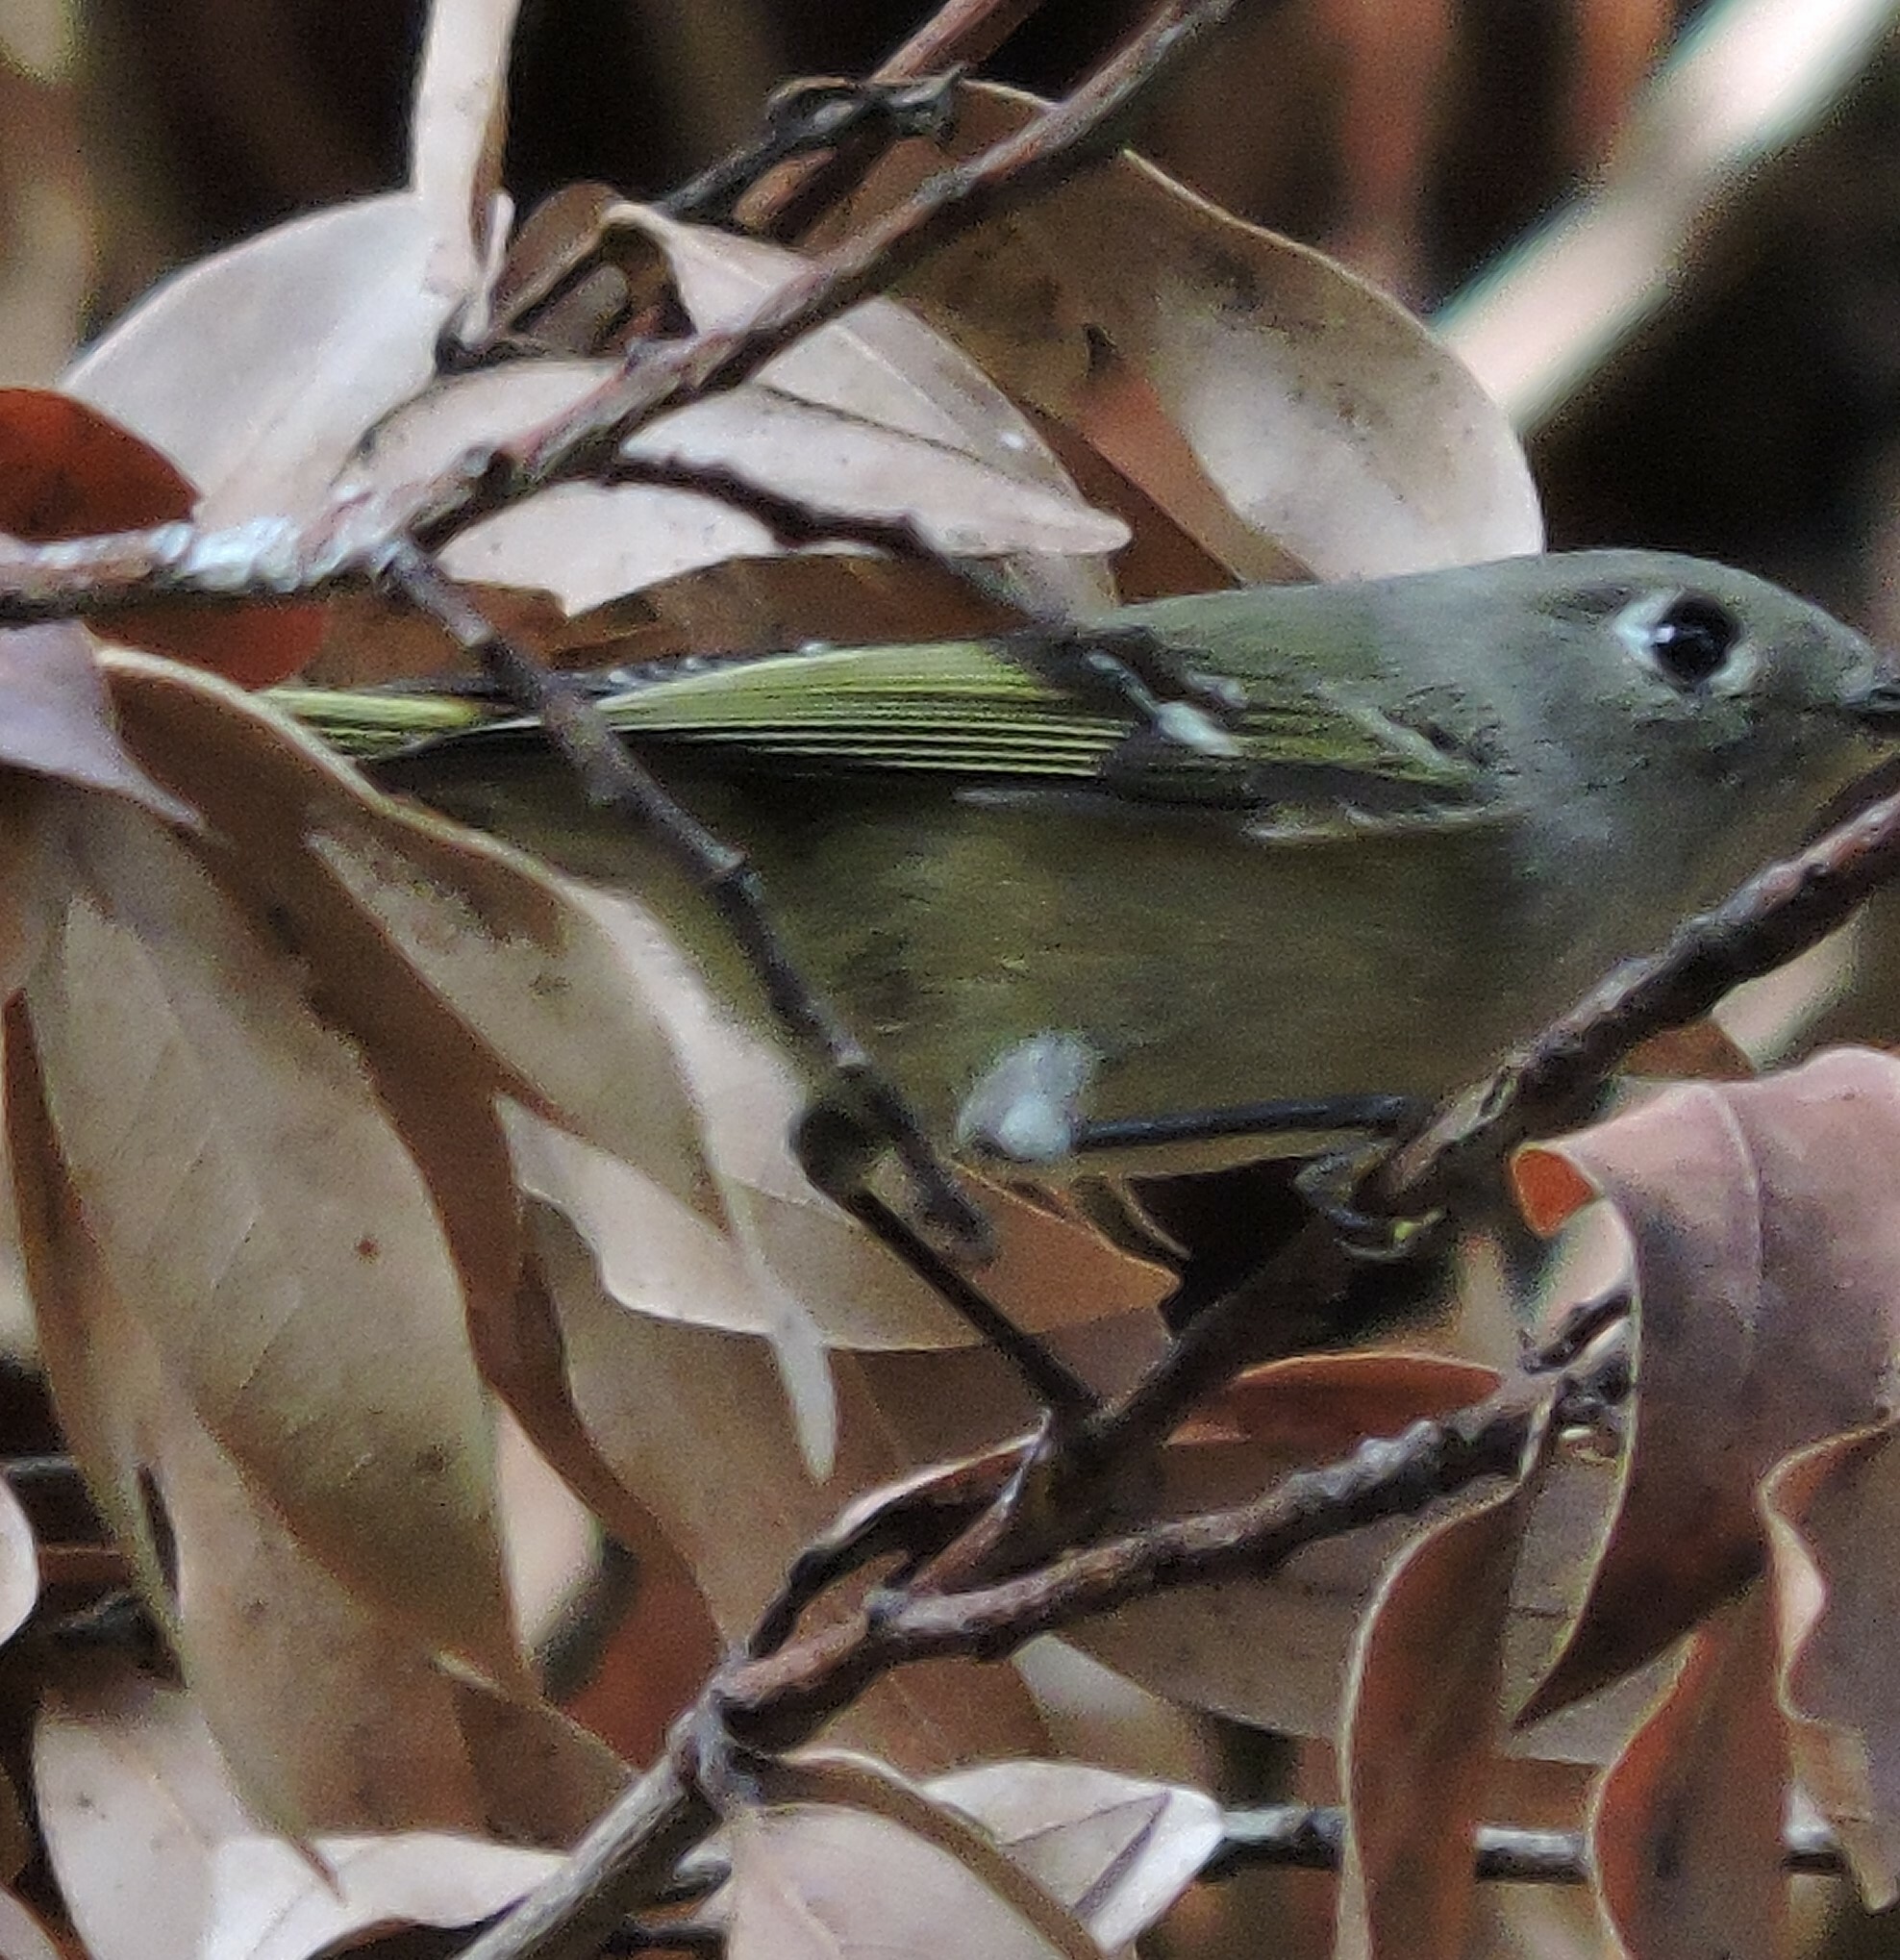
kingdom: Animalia
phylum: Chordata
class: Aves
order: Passeriformes
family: Regulidae
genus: Regulus
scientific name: Regulus calendula
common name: Ruby-crowned kinglet
